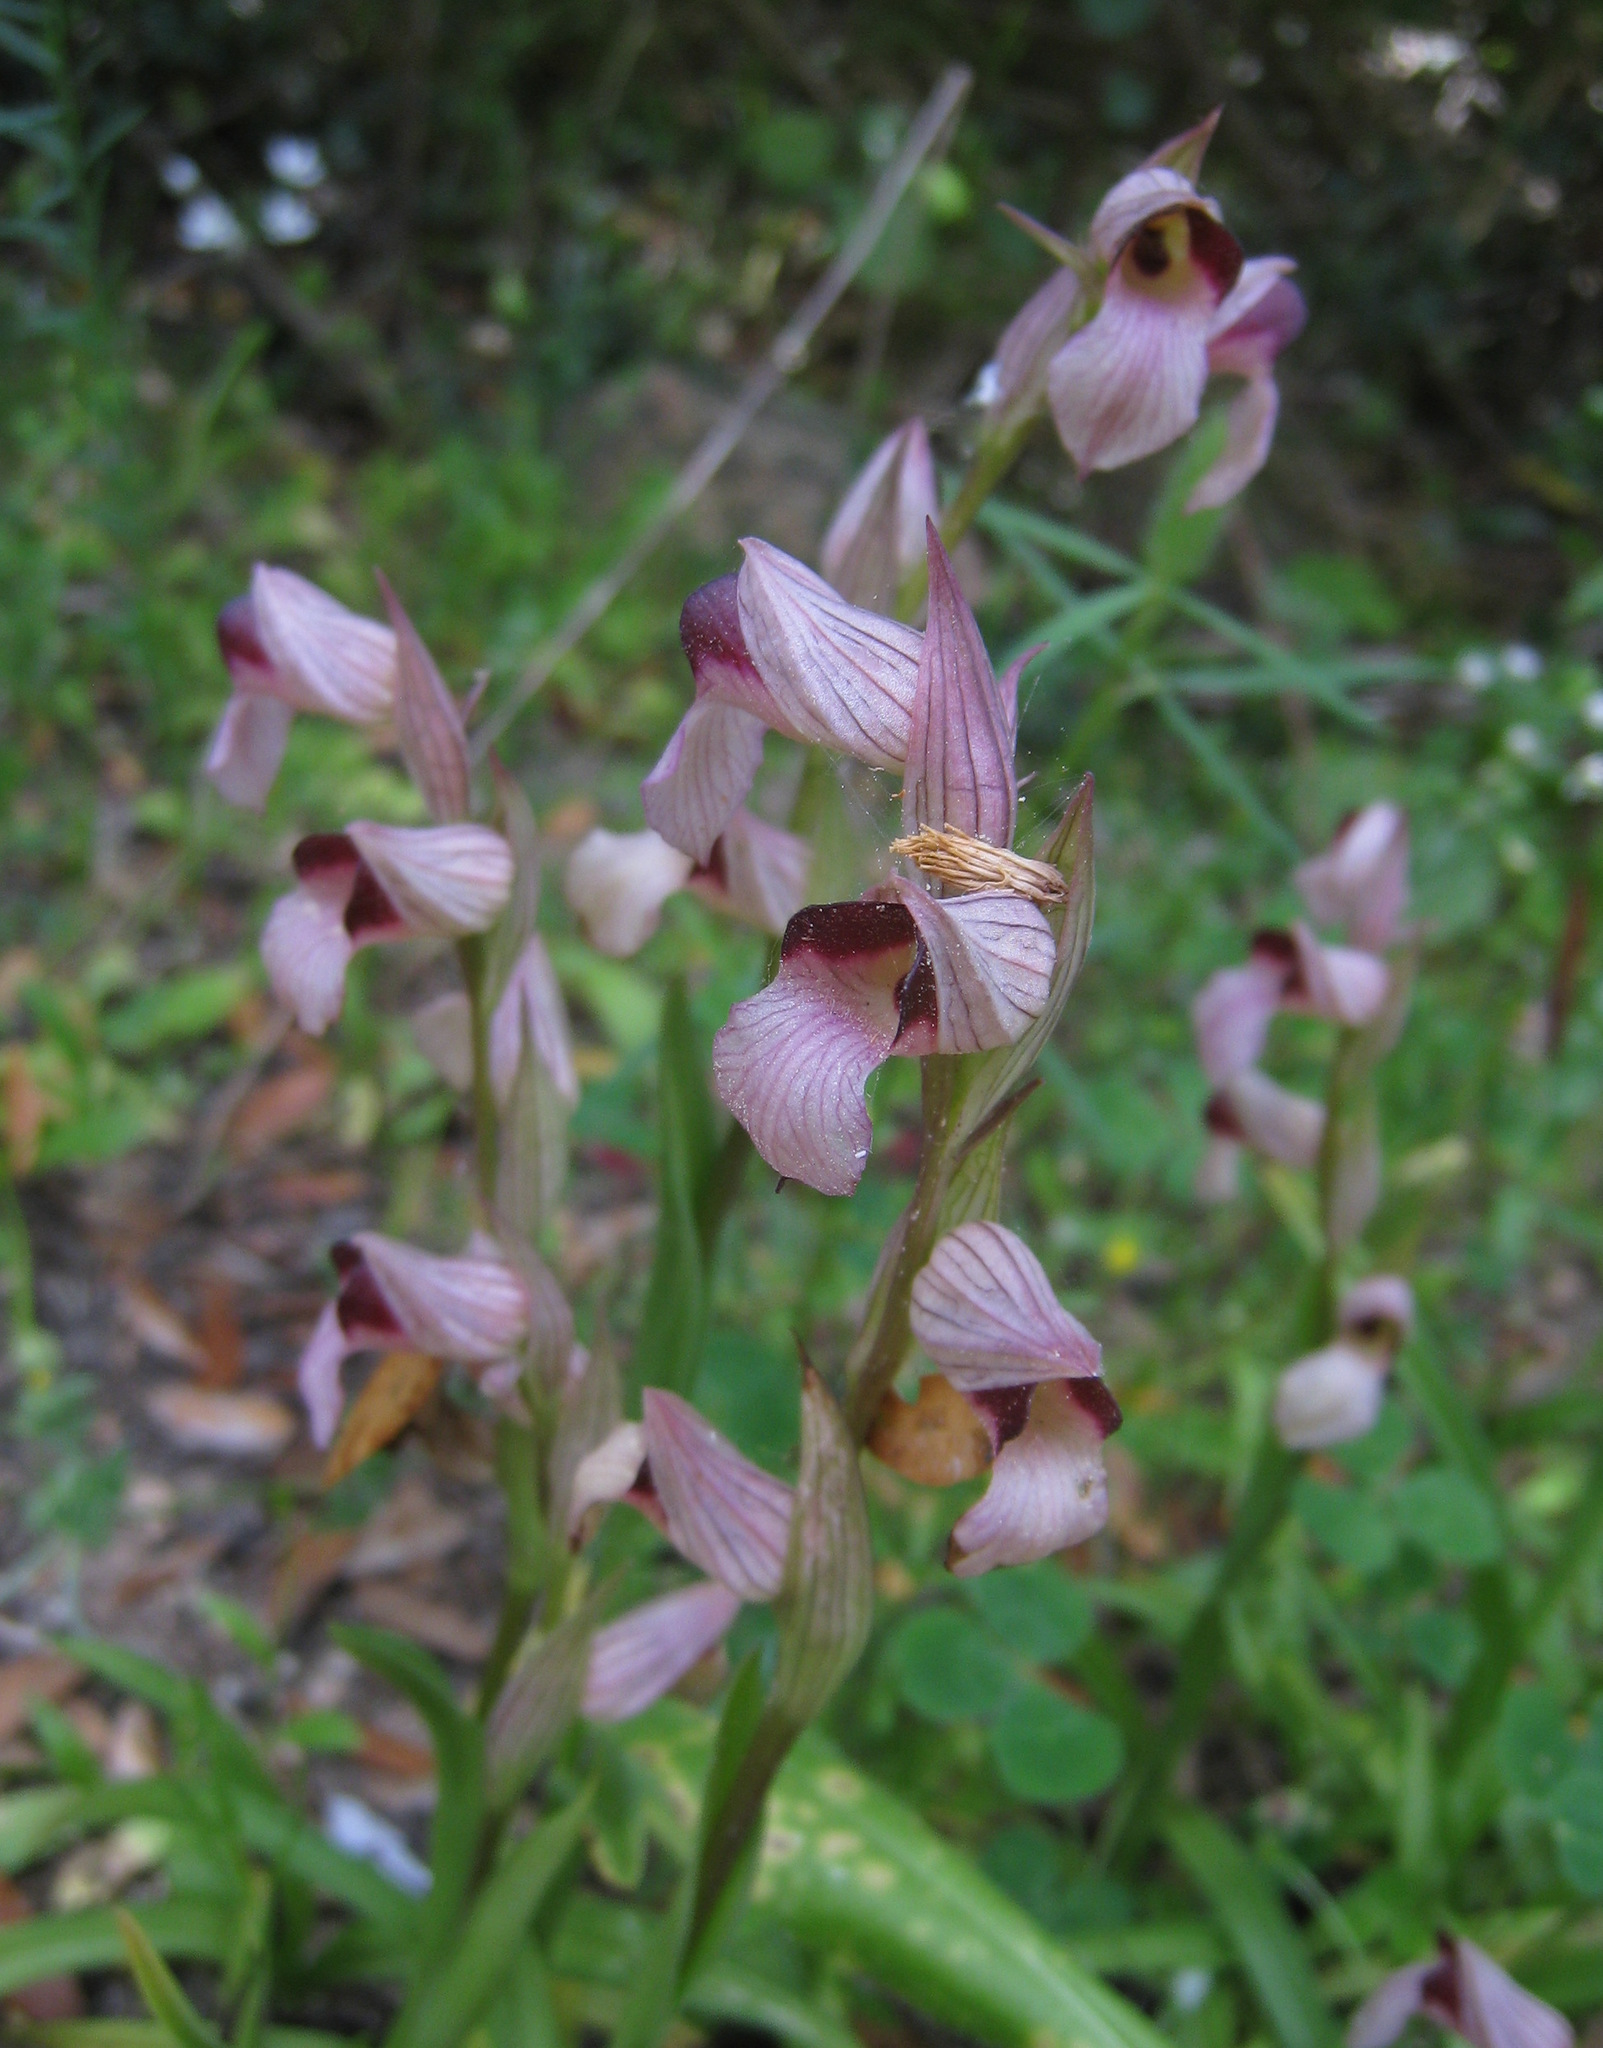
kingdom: Plantae
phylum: Tracheophyta
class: Liliopsida
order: Asparagales
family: Orchidaceae
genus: Serapias
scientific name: Serapias lingua
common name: Tongue-orchid
